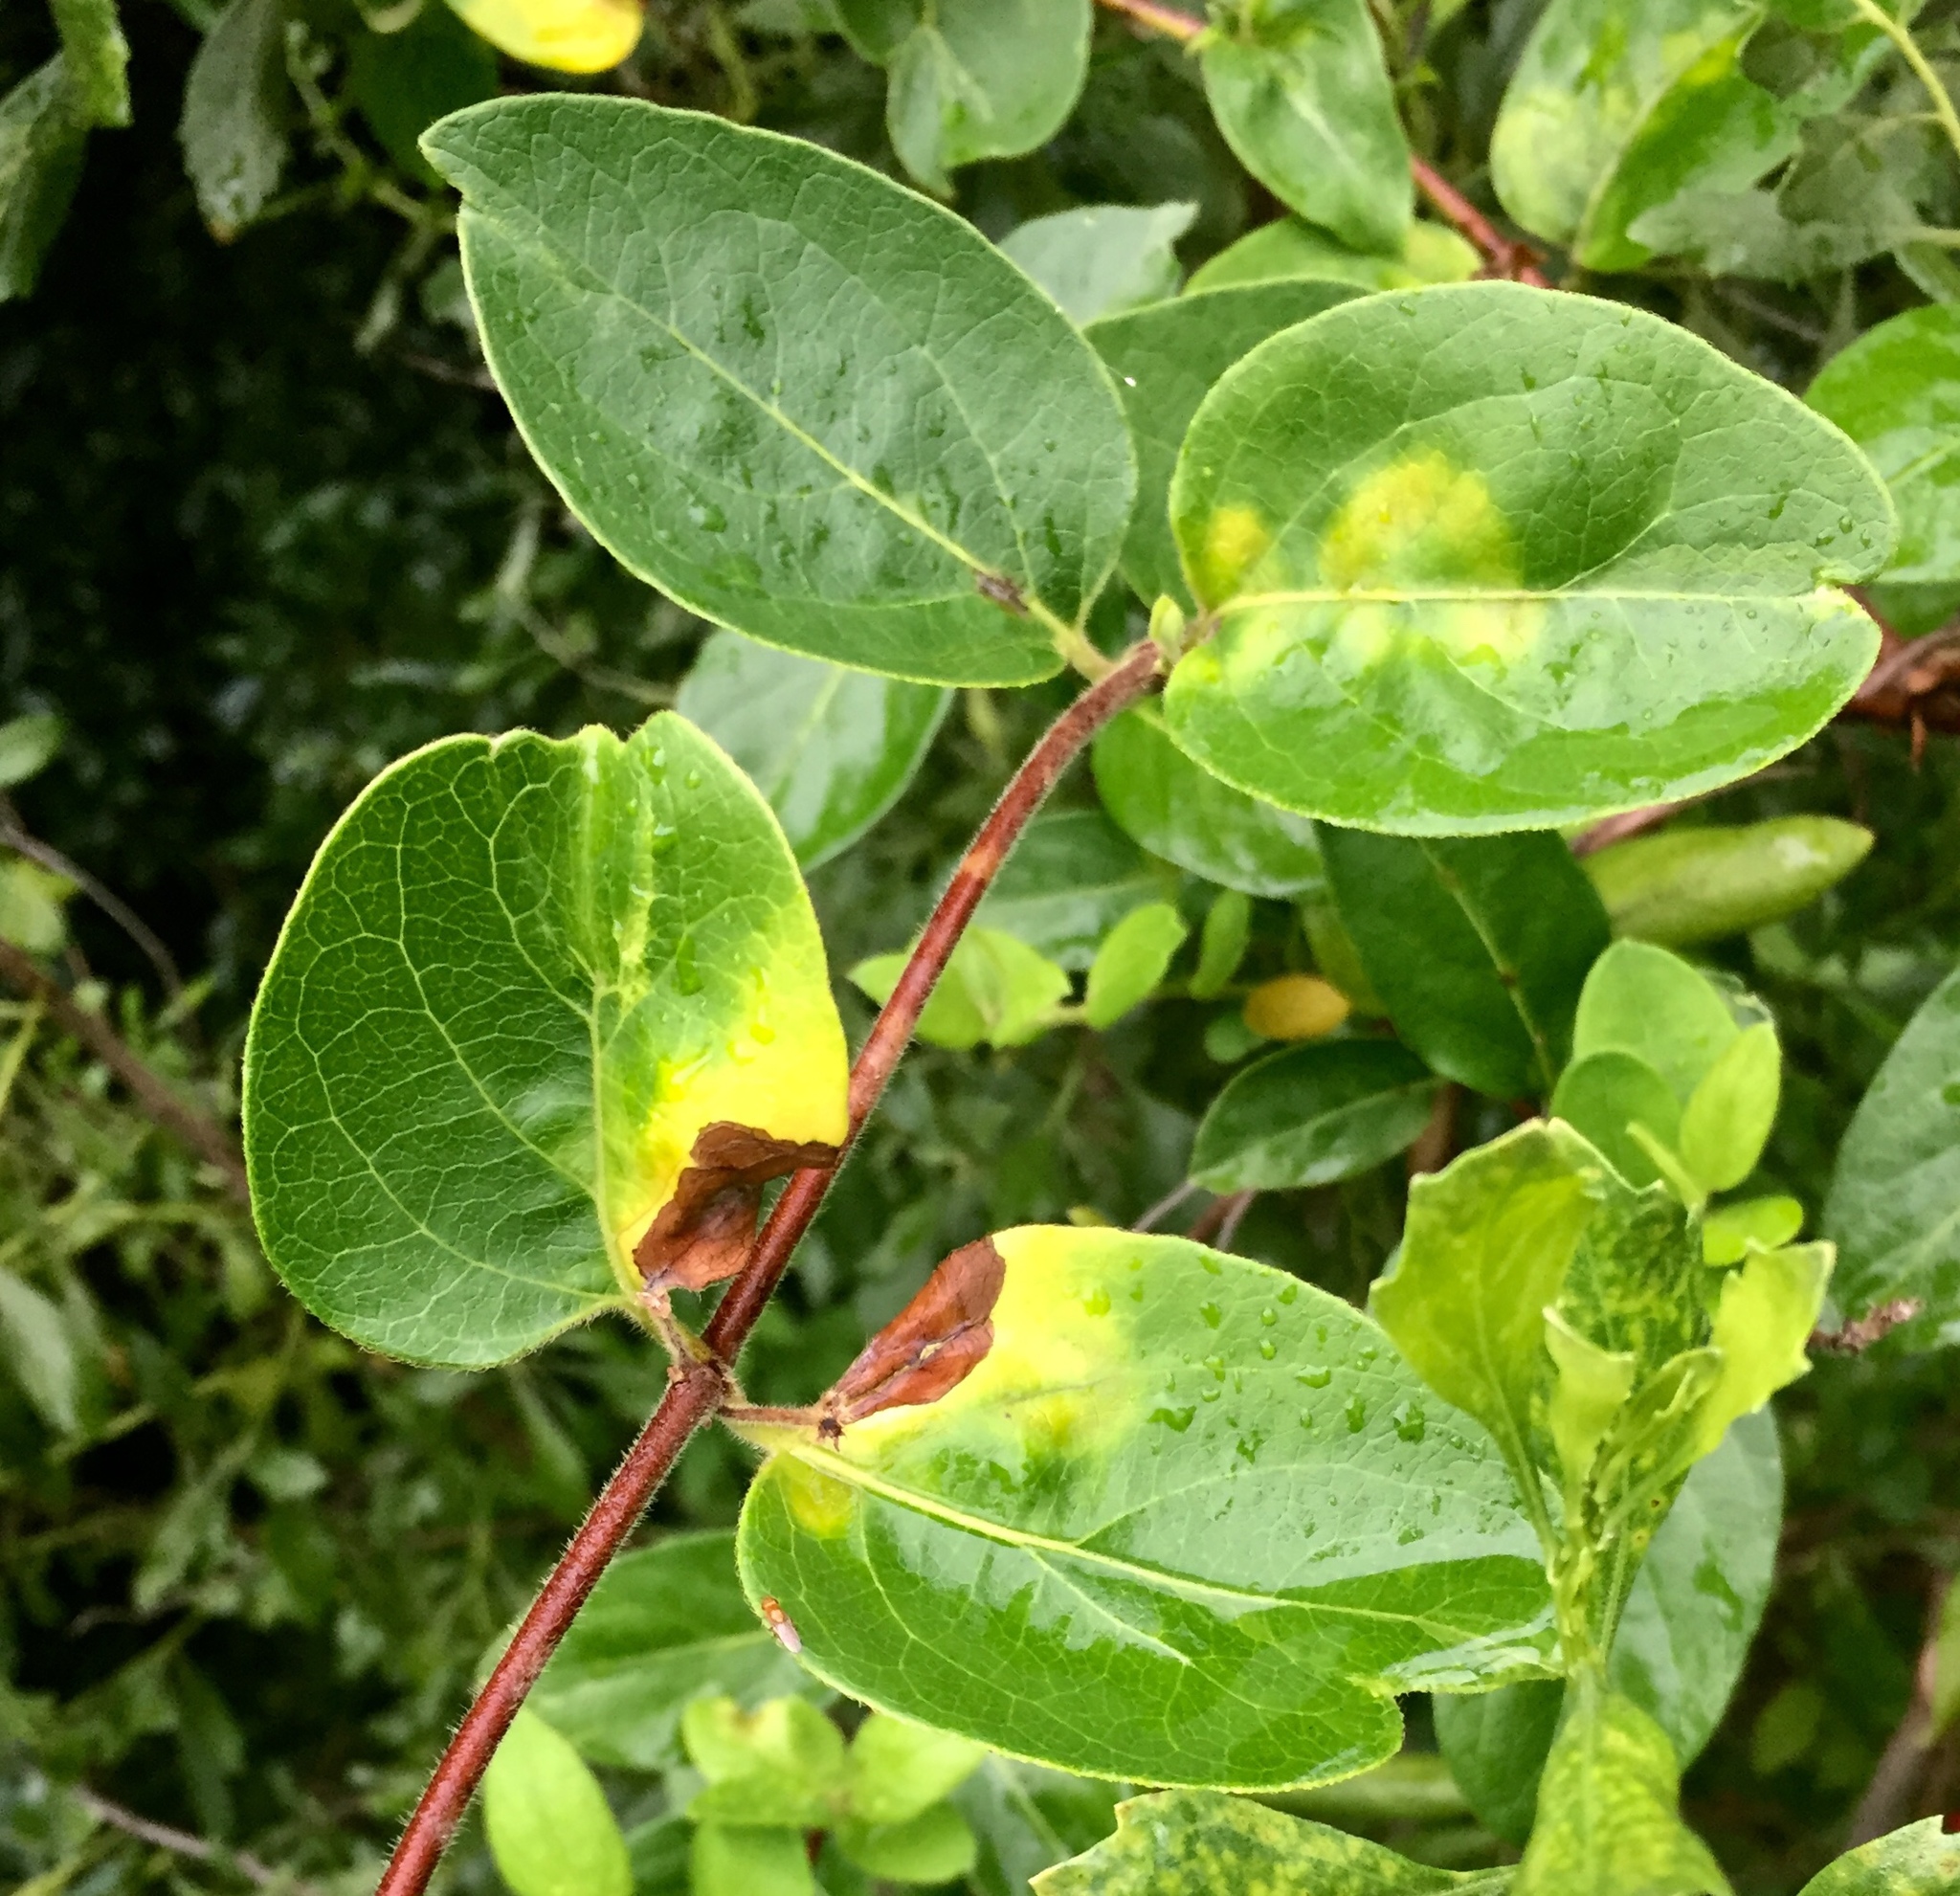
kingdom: Fungi
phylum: Basidiomycota
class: Pucciniomycetes
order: Platygloeales
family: Platygloeaceae
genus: Insolibasidium
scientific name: Insolibasidium deformans
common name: Honeysuckle leaf blight
